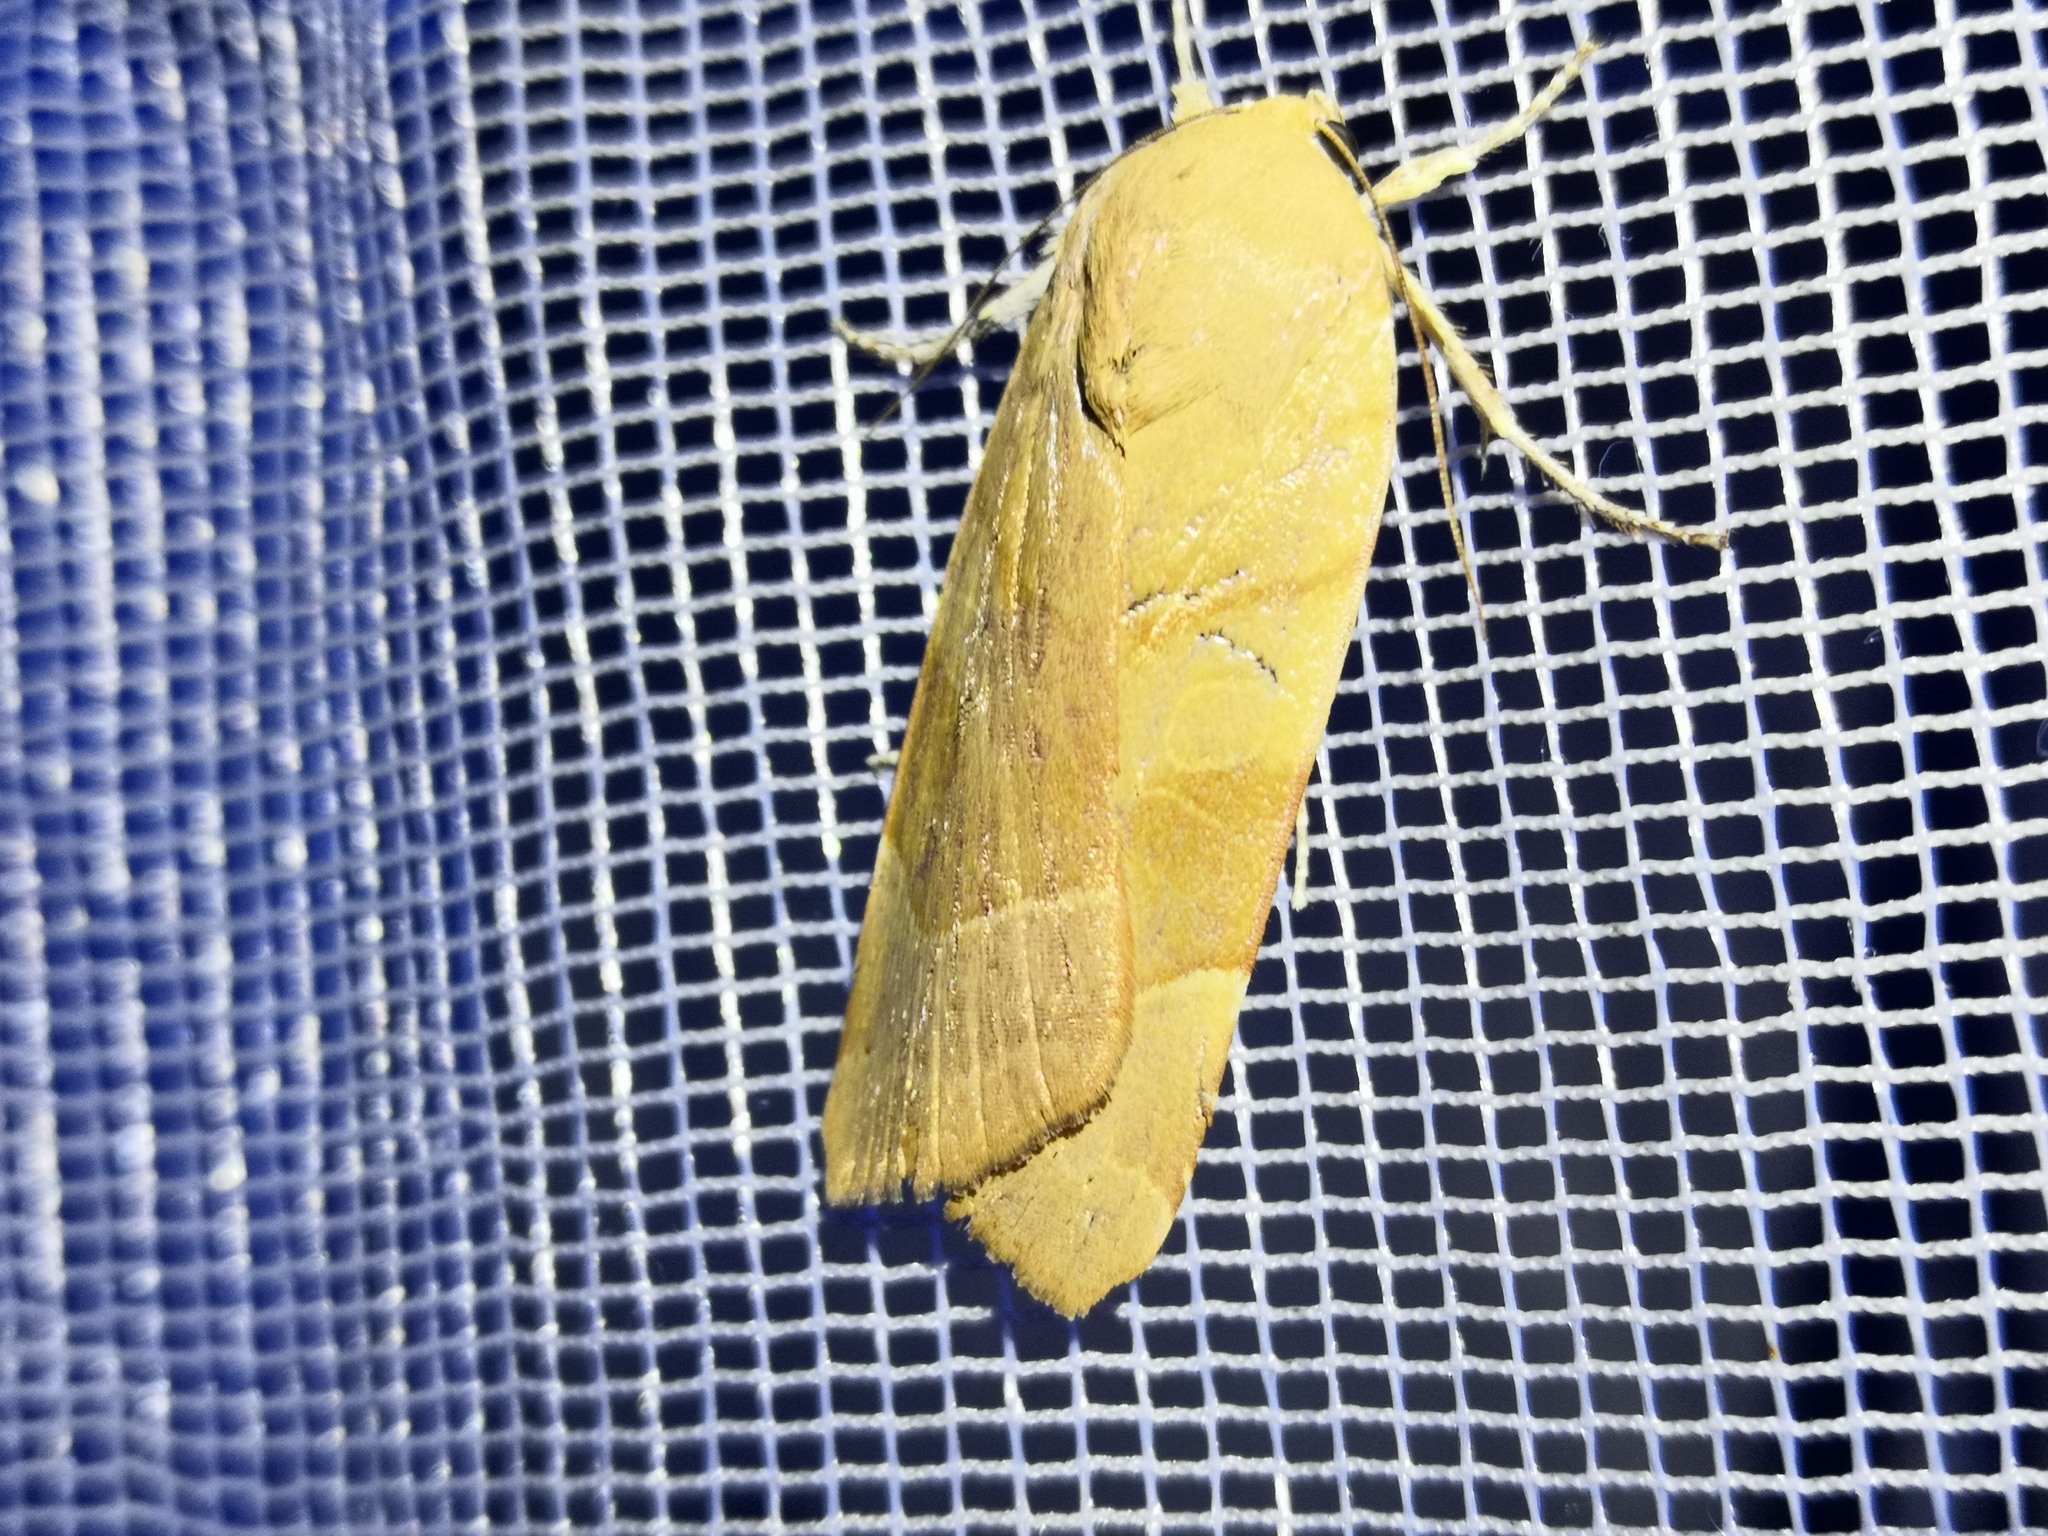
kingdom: Animalia
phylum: Arthropoda
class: Insecta
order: Lepidoptera
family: Noctuidae
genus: Noctua
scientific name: Noctua fimbriata
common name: Broad-bordered yellow underwing
